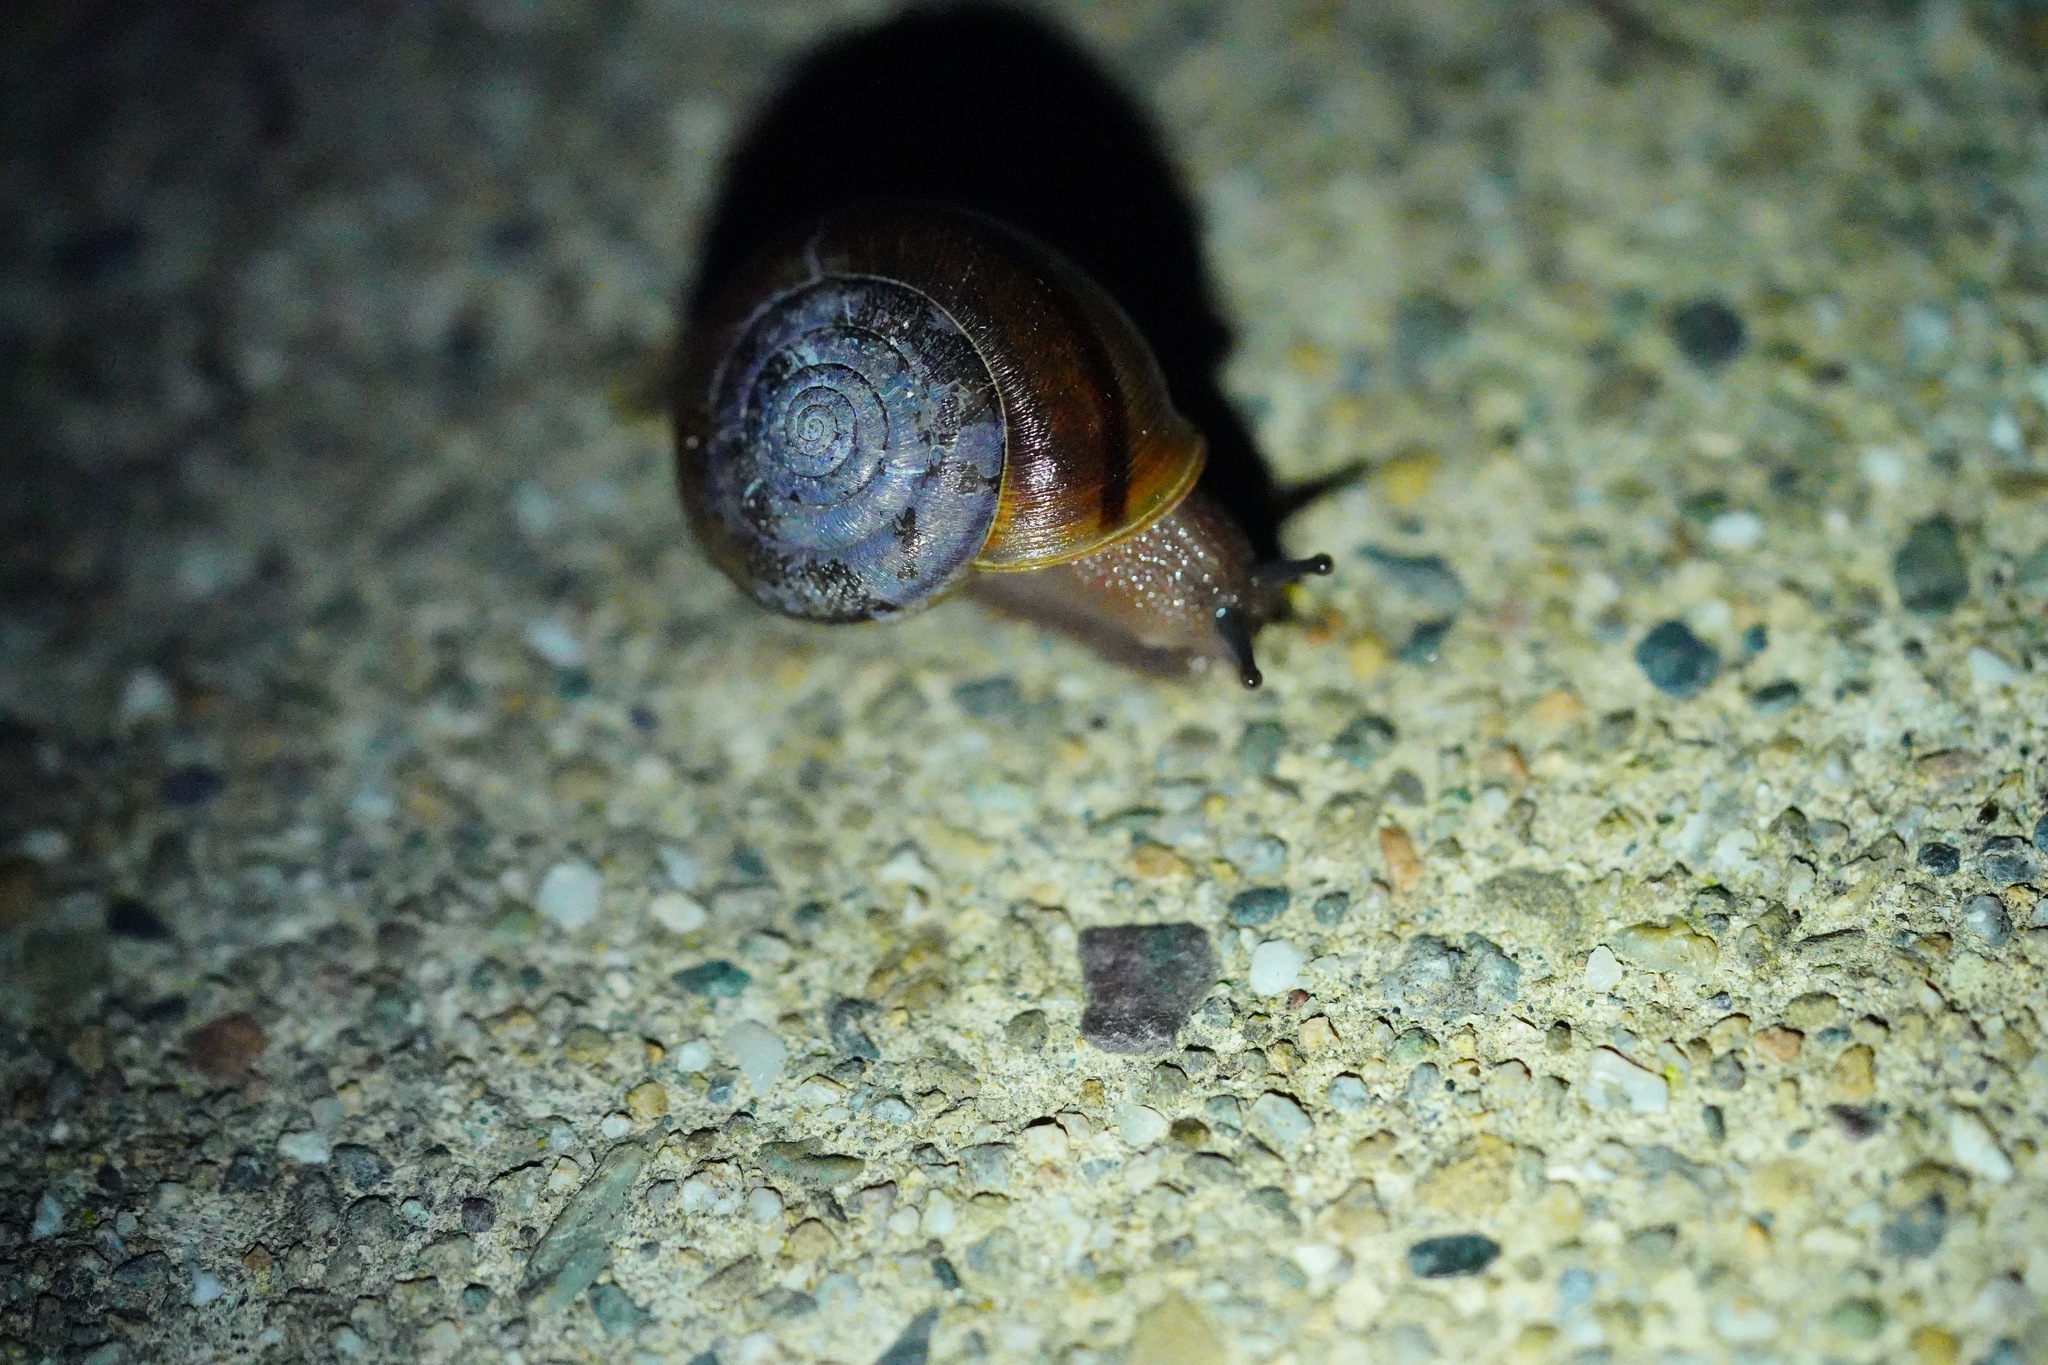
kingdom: Animalia
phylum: Mollusca
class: Gastropoda
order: Stylommatophora
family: Xanthonychidae
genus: Helminthoglypta
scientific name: Helminthoglypta diabloensis
